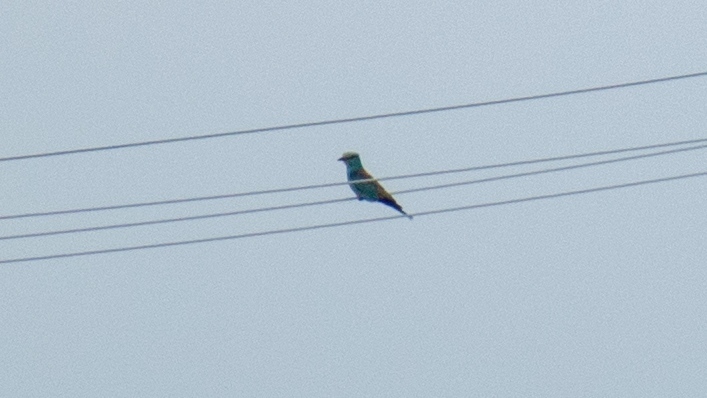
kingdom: Animalia
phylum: Chordata
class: Aves
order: Coraciiformes
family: Coraciidae
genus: Coracias
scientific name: Coracias garrulus
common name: European roller
